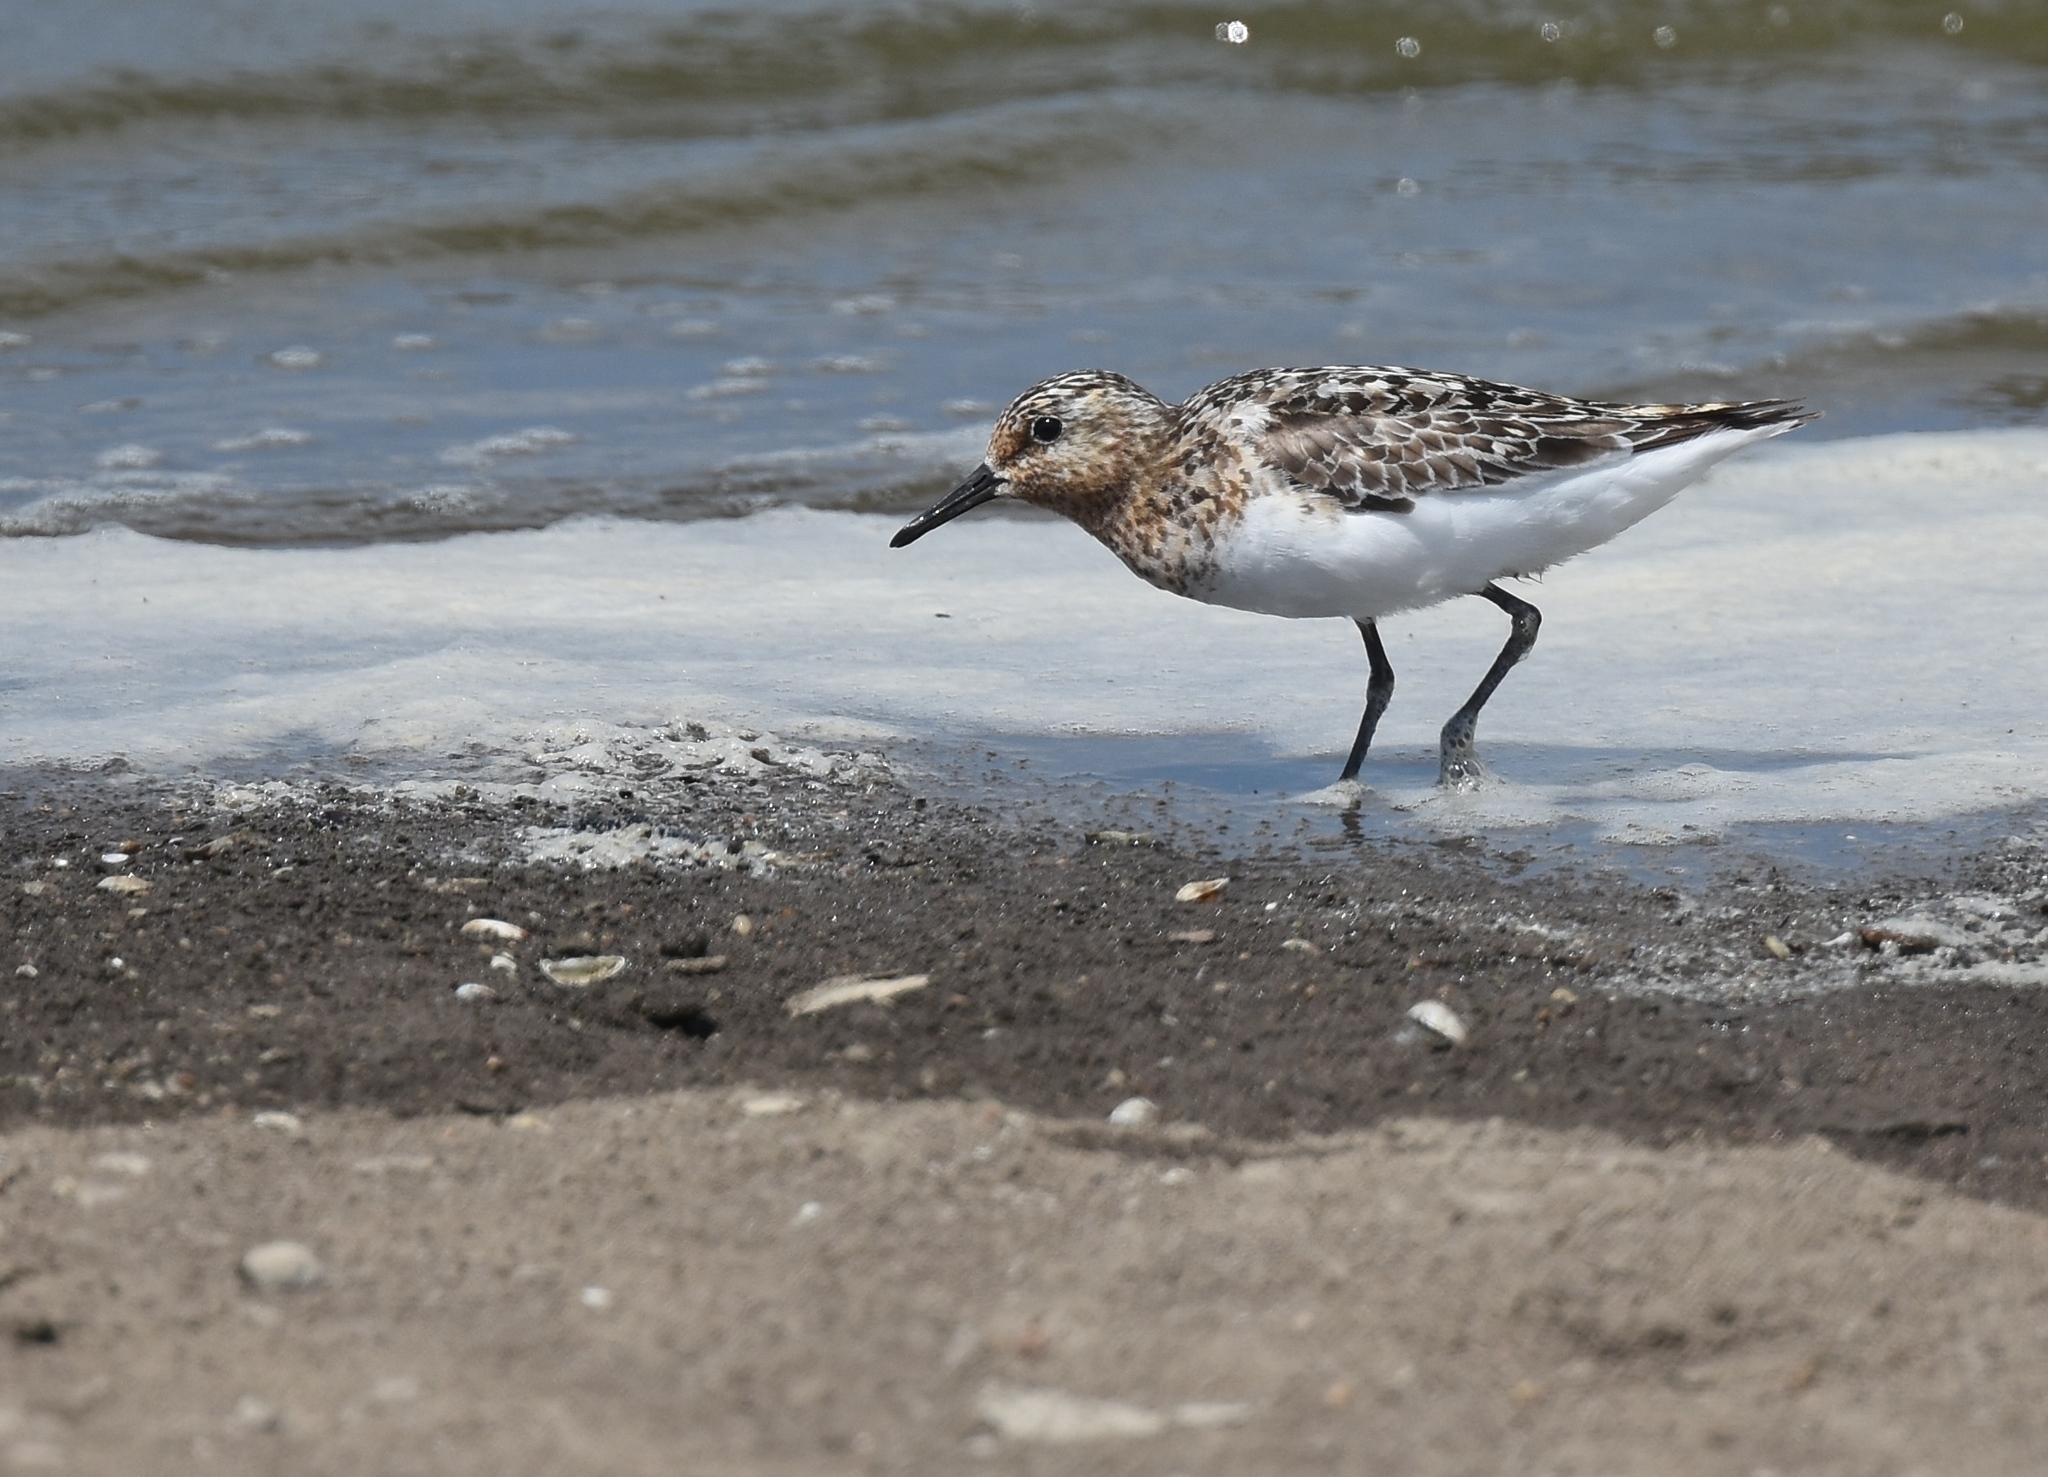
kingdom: Animalia
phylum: Chordata
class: Aves
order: Charadriiformes
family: Scolopacidae
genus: Calidris
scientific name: Calidris alba
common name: Sanderling
